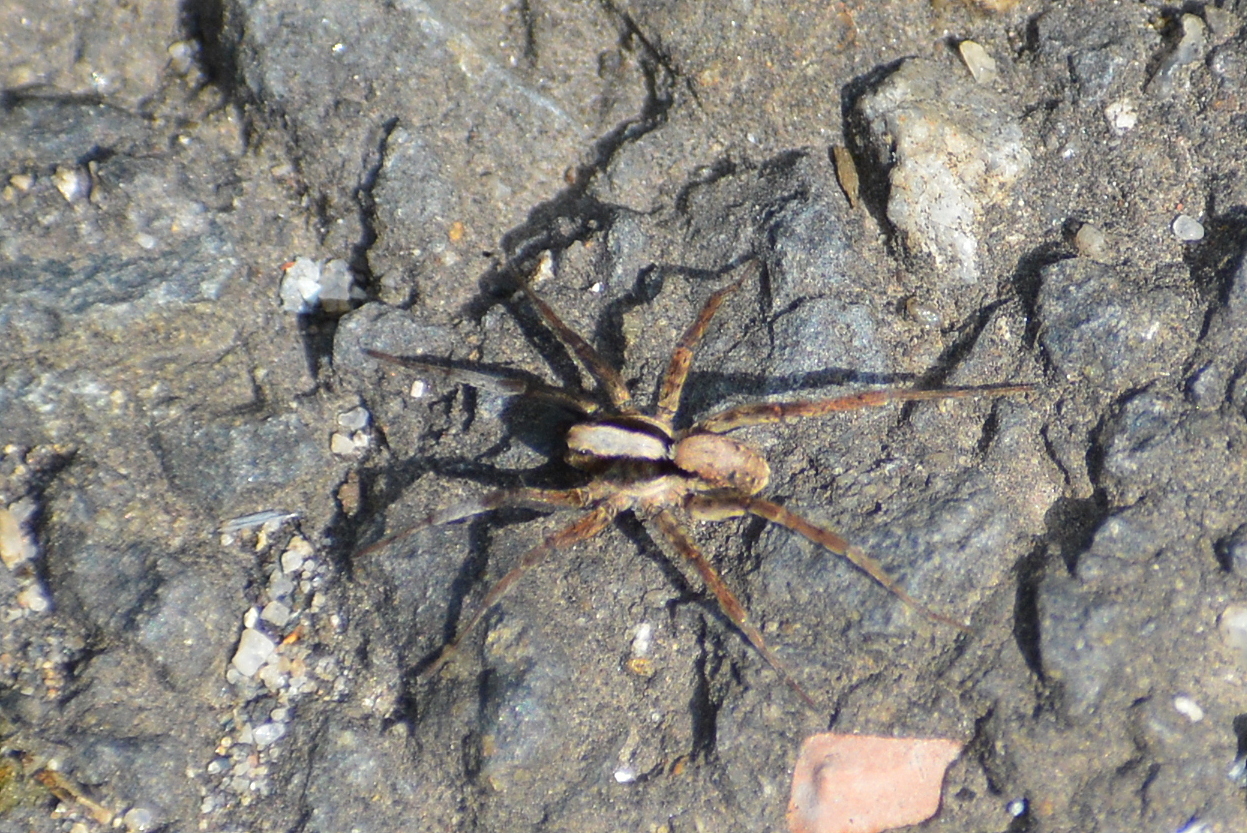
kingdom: Animalia
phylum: Arthropoda
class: Arachnida
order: Araneae
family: Lycosidae
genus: Xerolycosa
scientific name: Xerolycosa nemoralis
